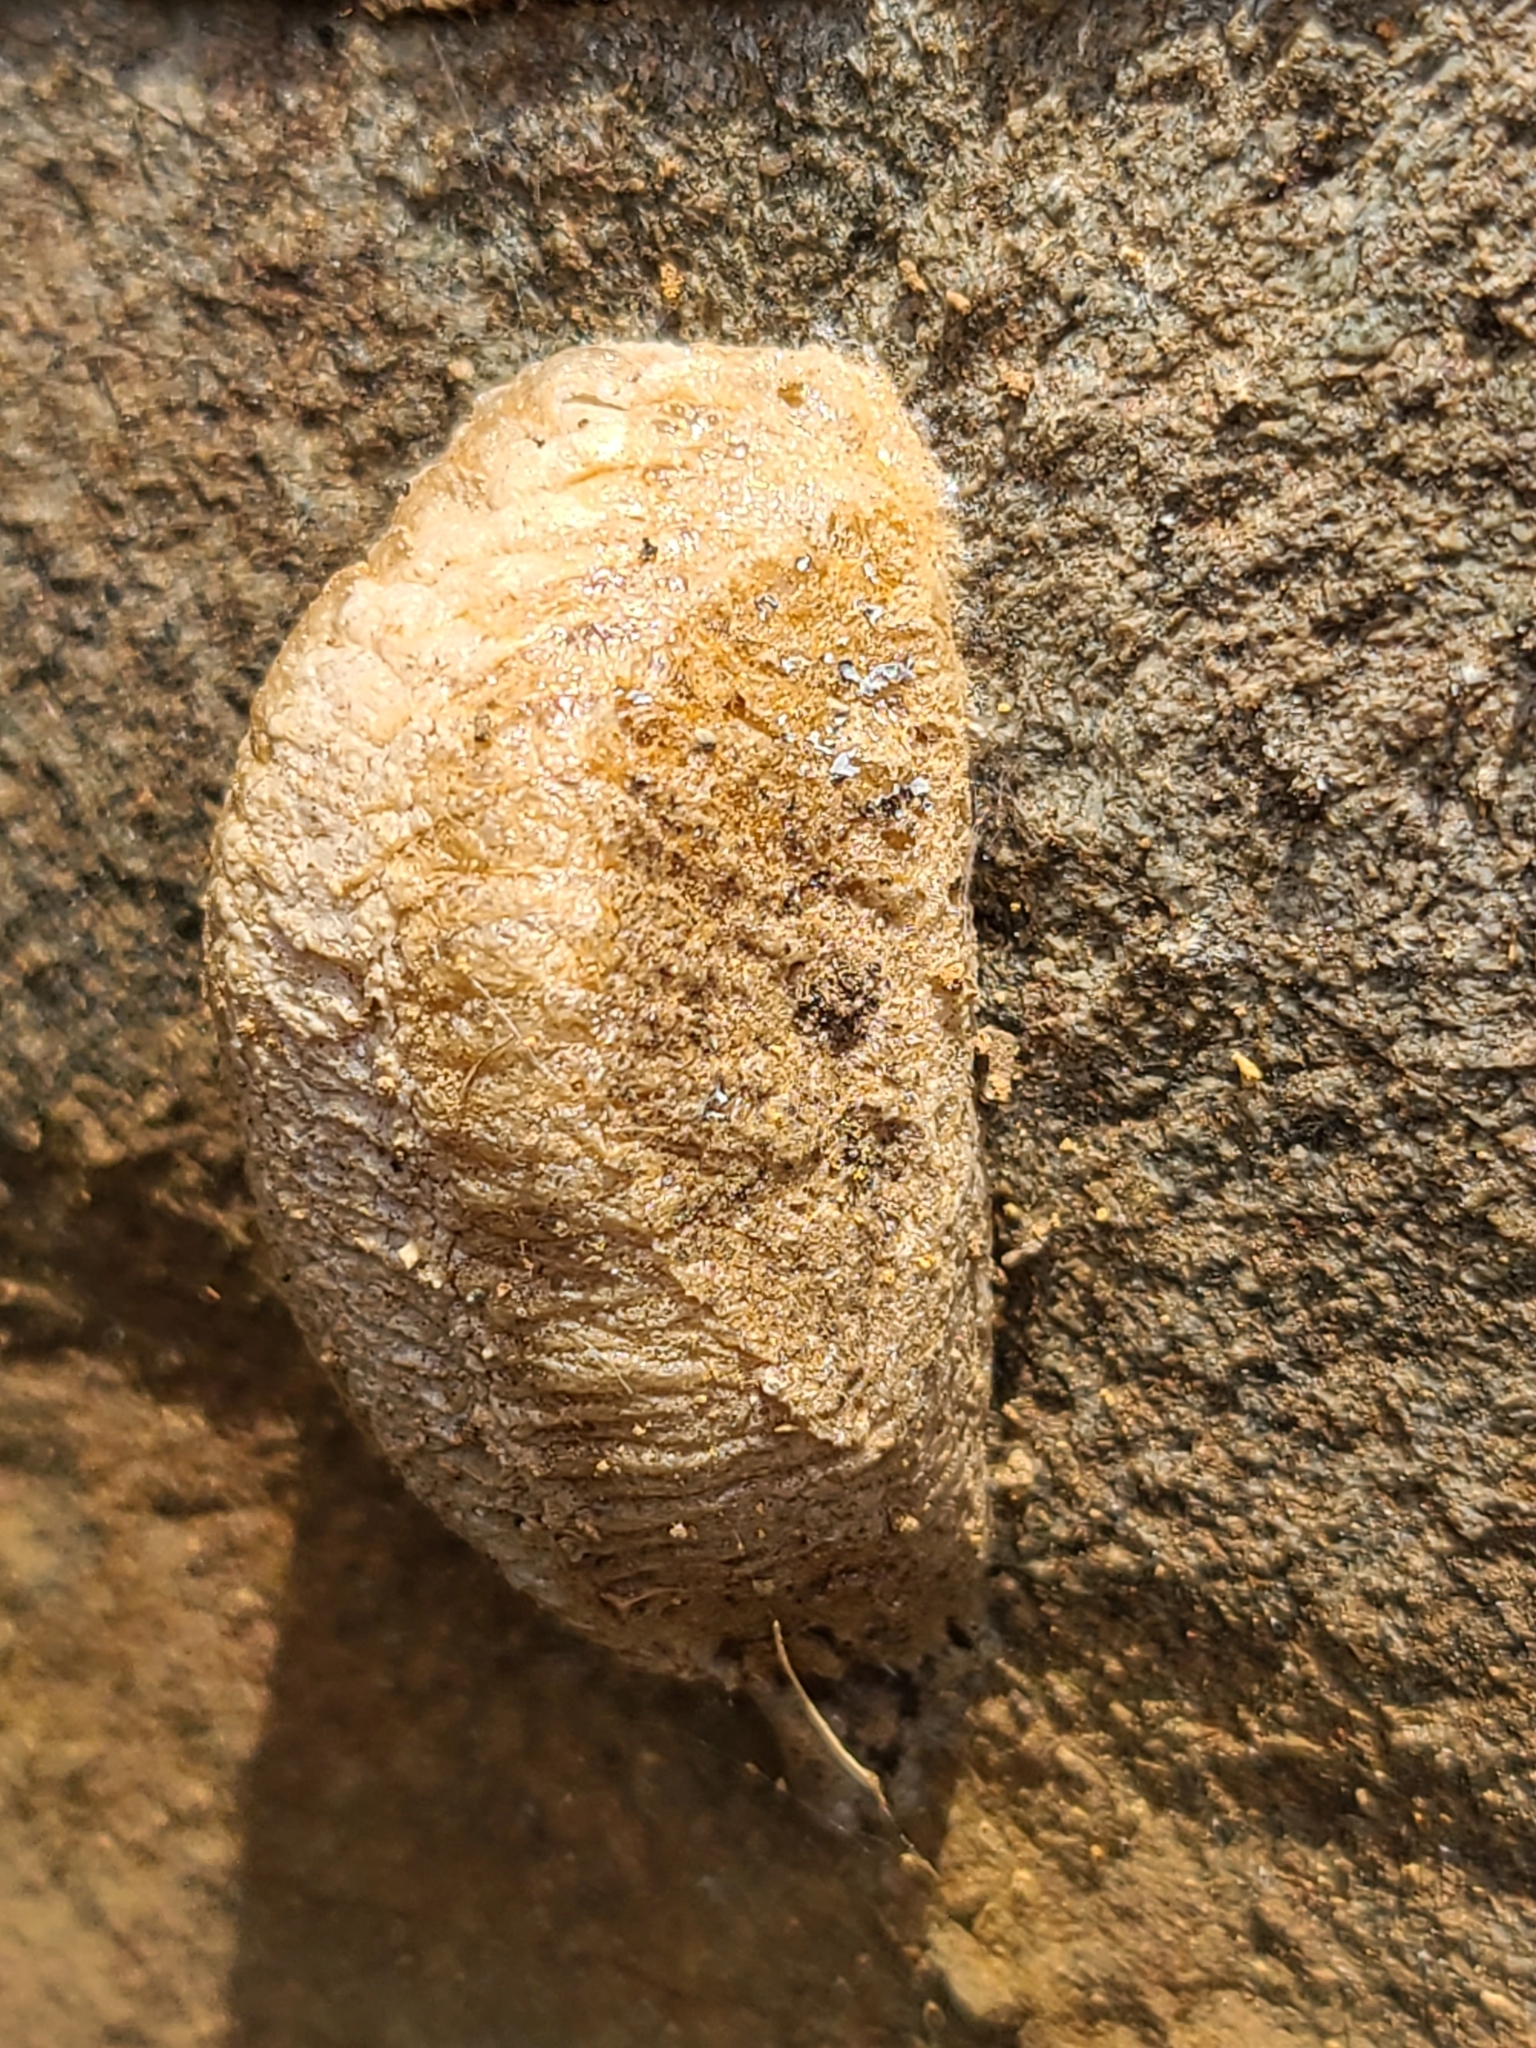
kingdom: Animalia
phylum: Arthropoda
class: Insecta
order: Mantodea
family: Mantidae
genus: Mantis
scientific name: Mantis religiosa
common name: Praying mantis
